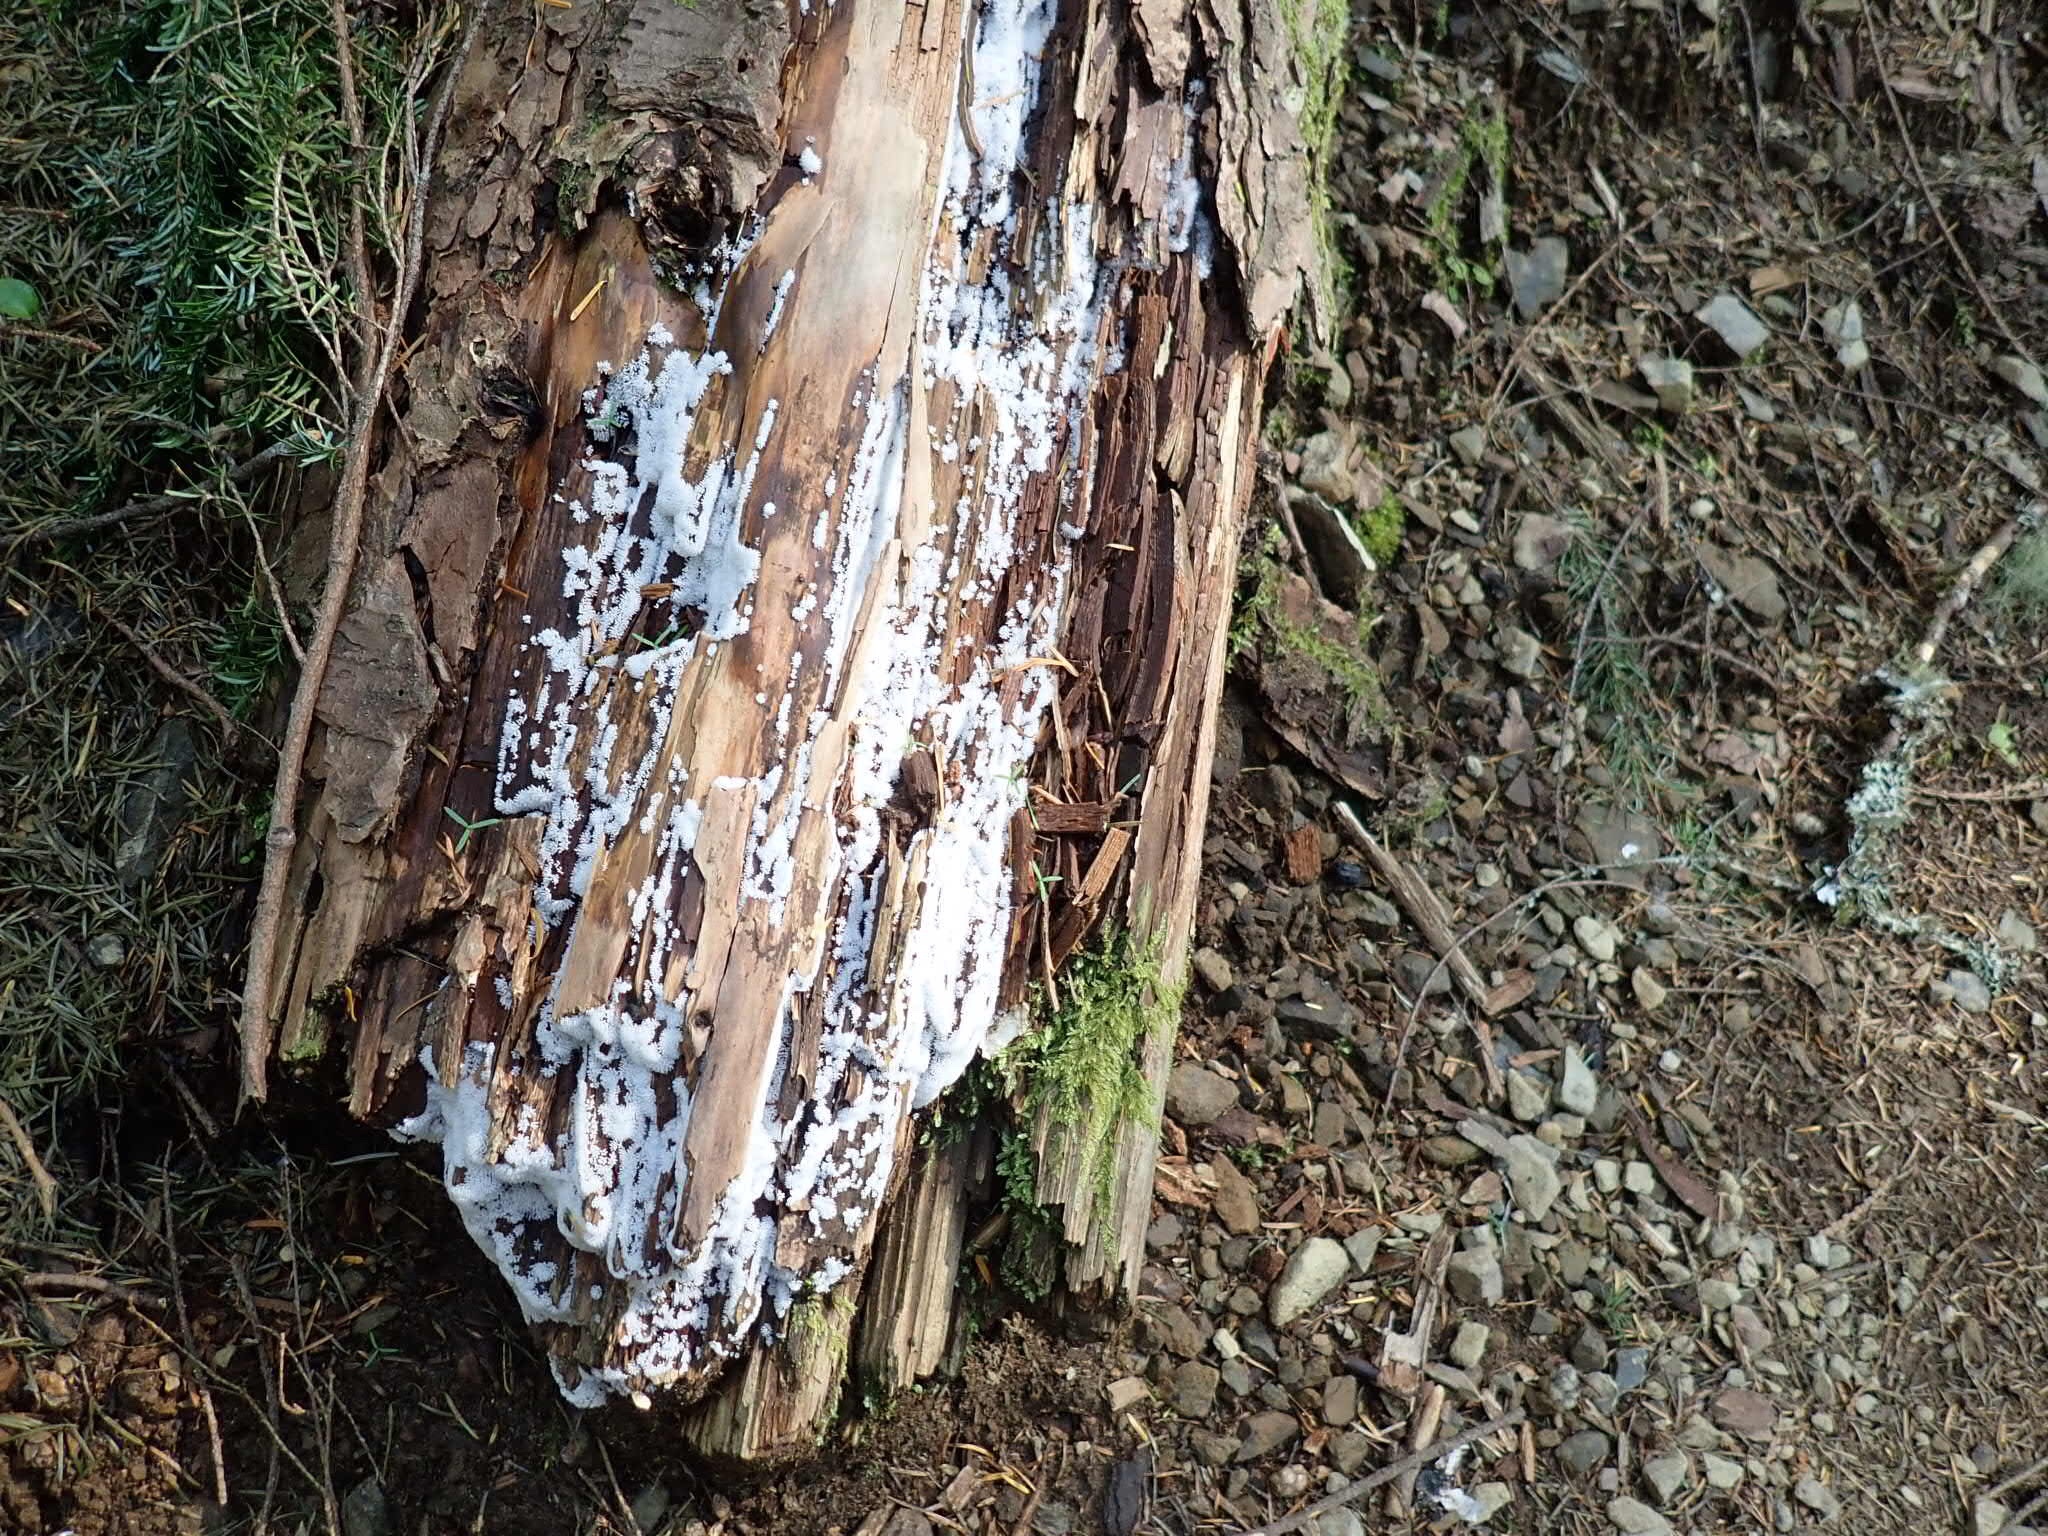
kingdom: Protozoa
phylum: Mycetozoa
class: Protosteliomycetes
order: Ceratiomyxales
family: Ceratiomyxaceae
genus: Ceratiomyxa
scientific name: Ceratiomyxa fruticulosa
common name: Honeycomb coral slime mold
